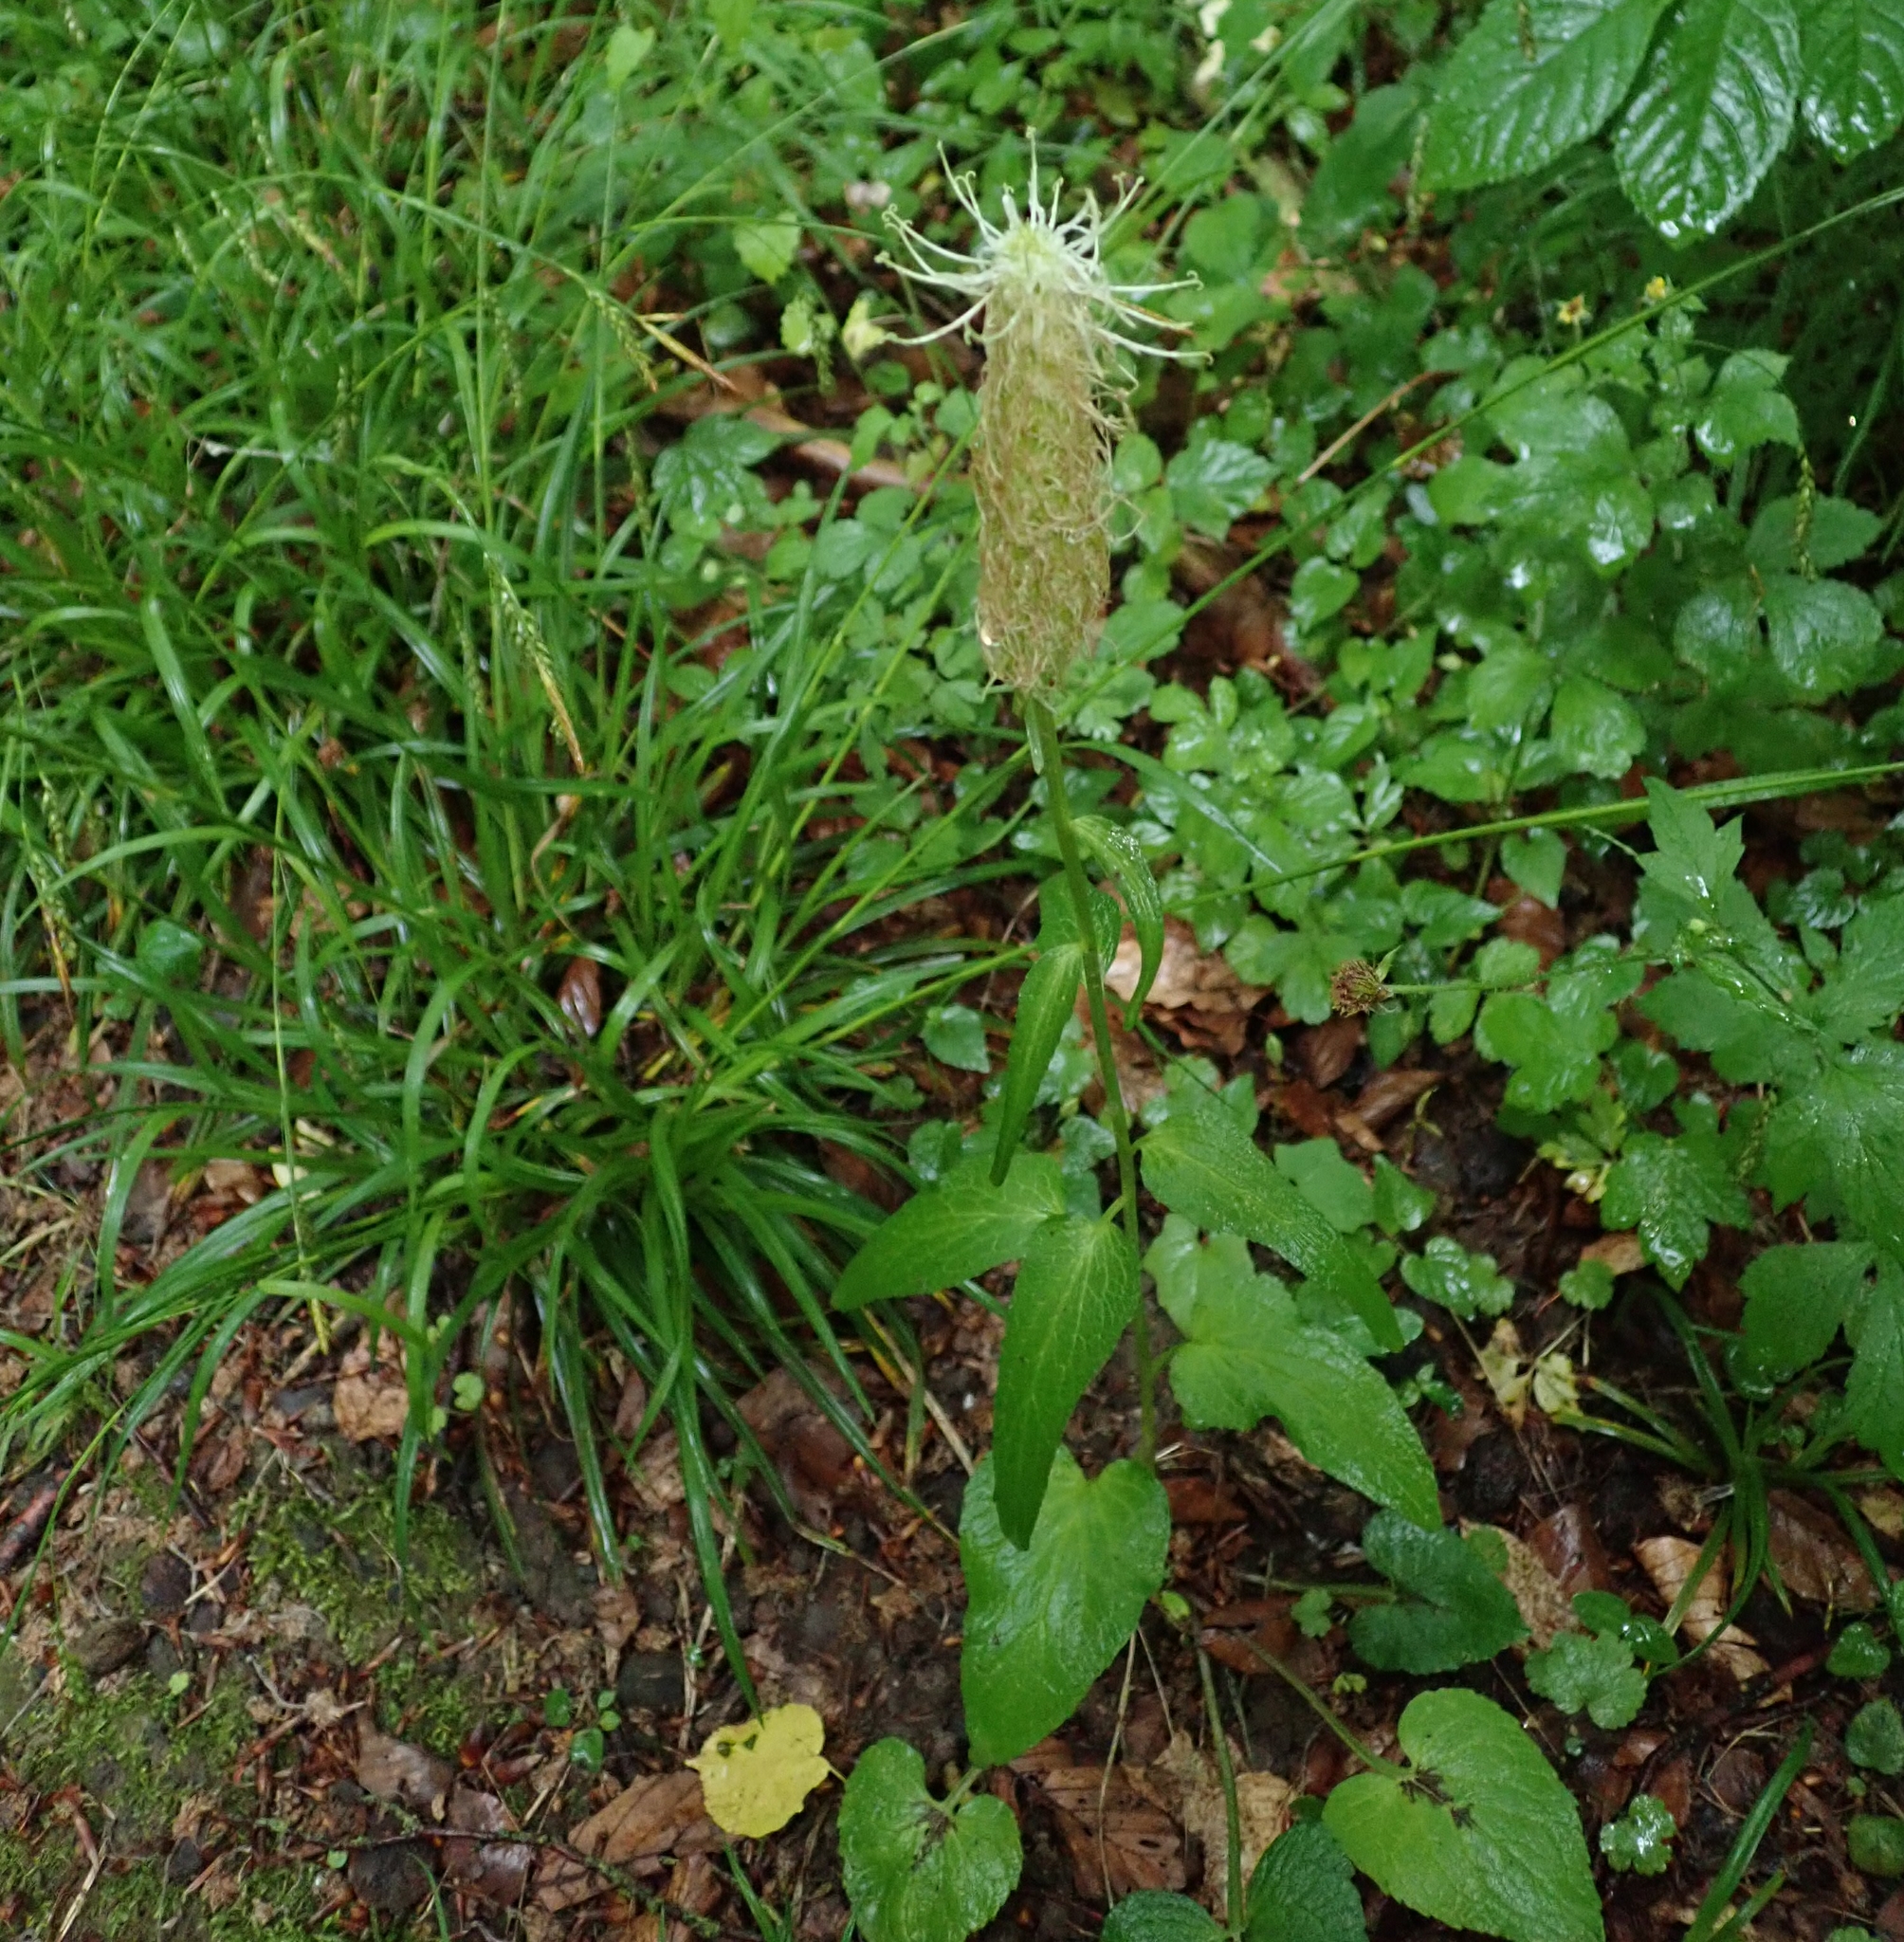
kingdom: Plantae
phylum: Tracheophyta
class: Magnoliopsida
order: Asterales
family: Campanulaceae
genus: Phyteuma
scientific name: Phyteuma spicatum
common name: Spiked rampion
